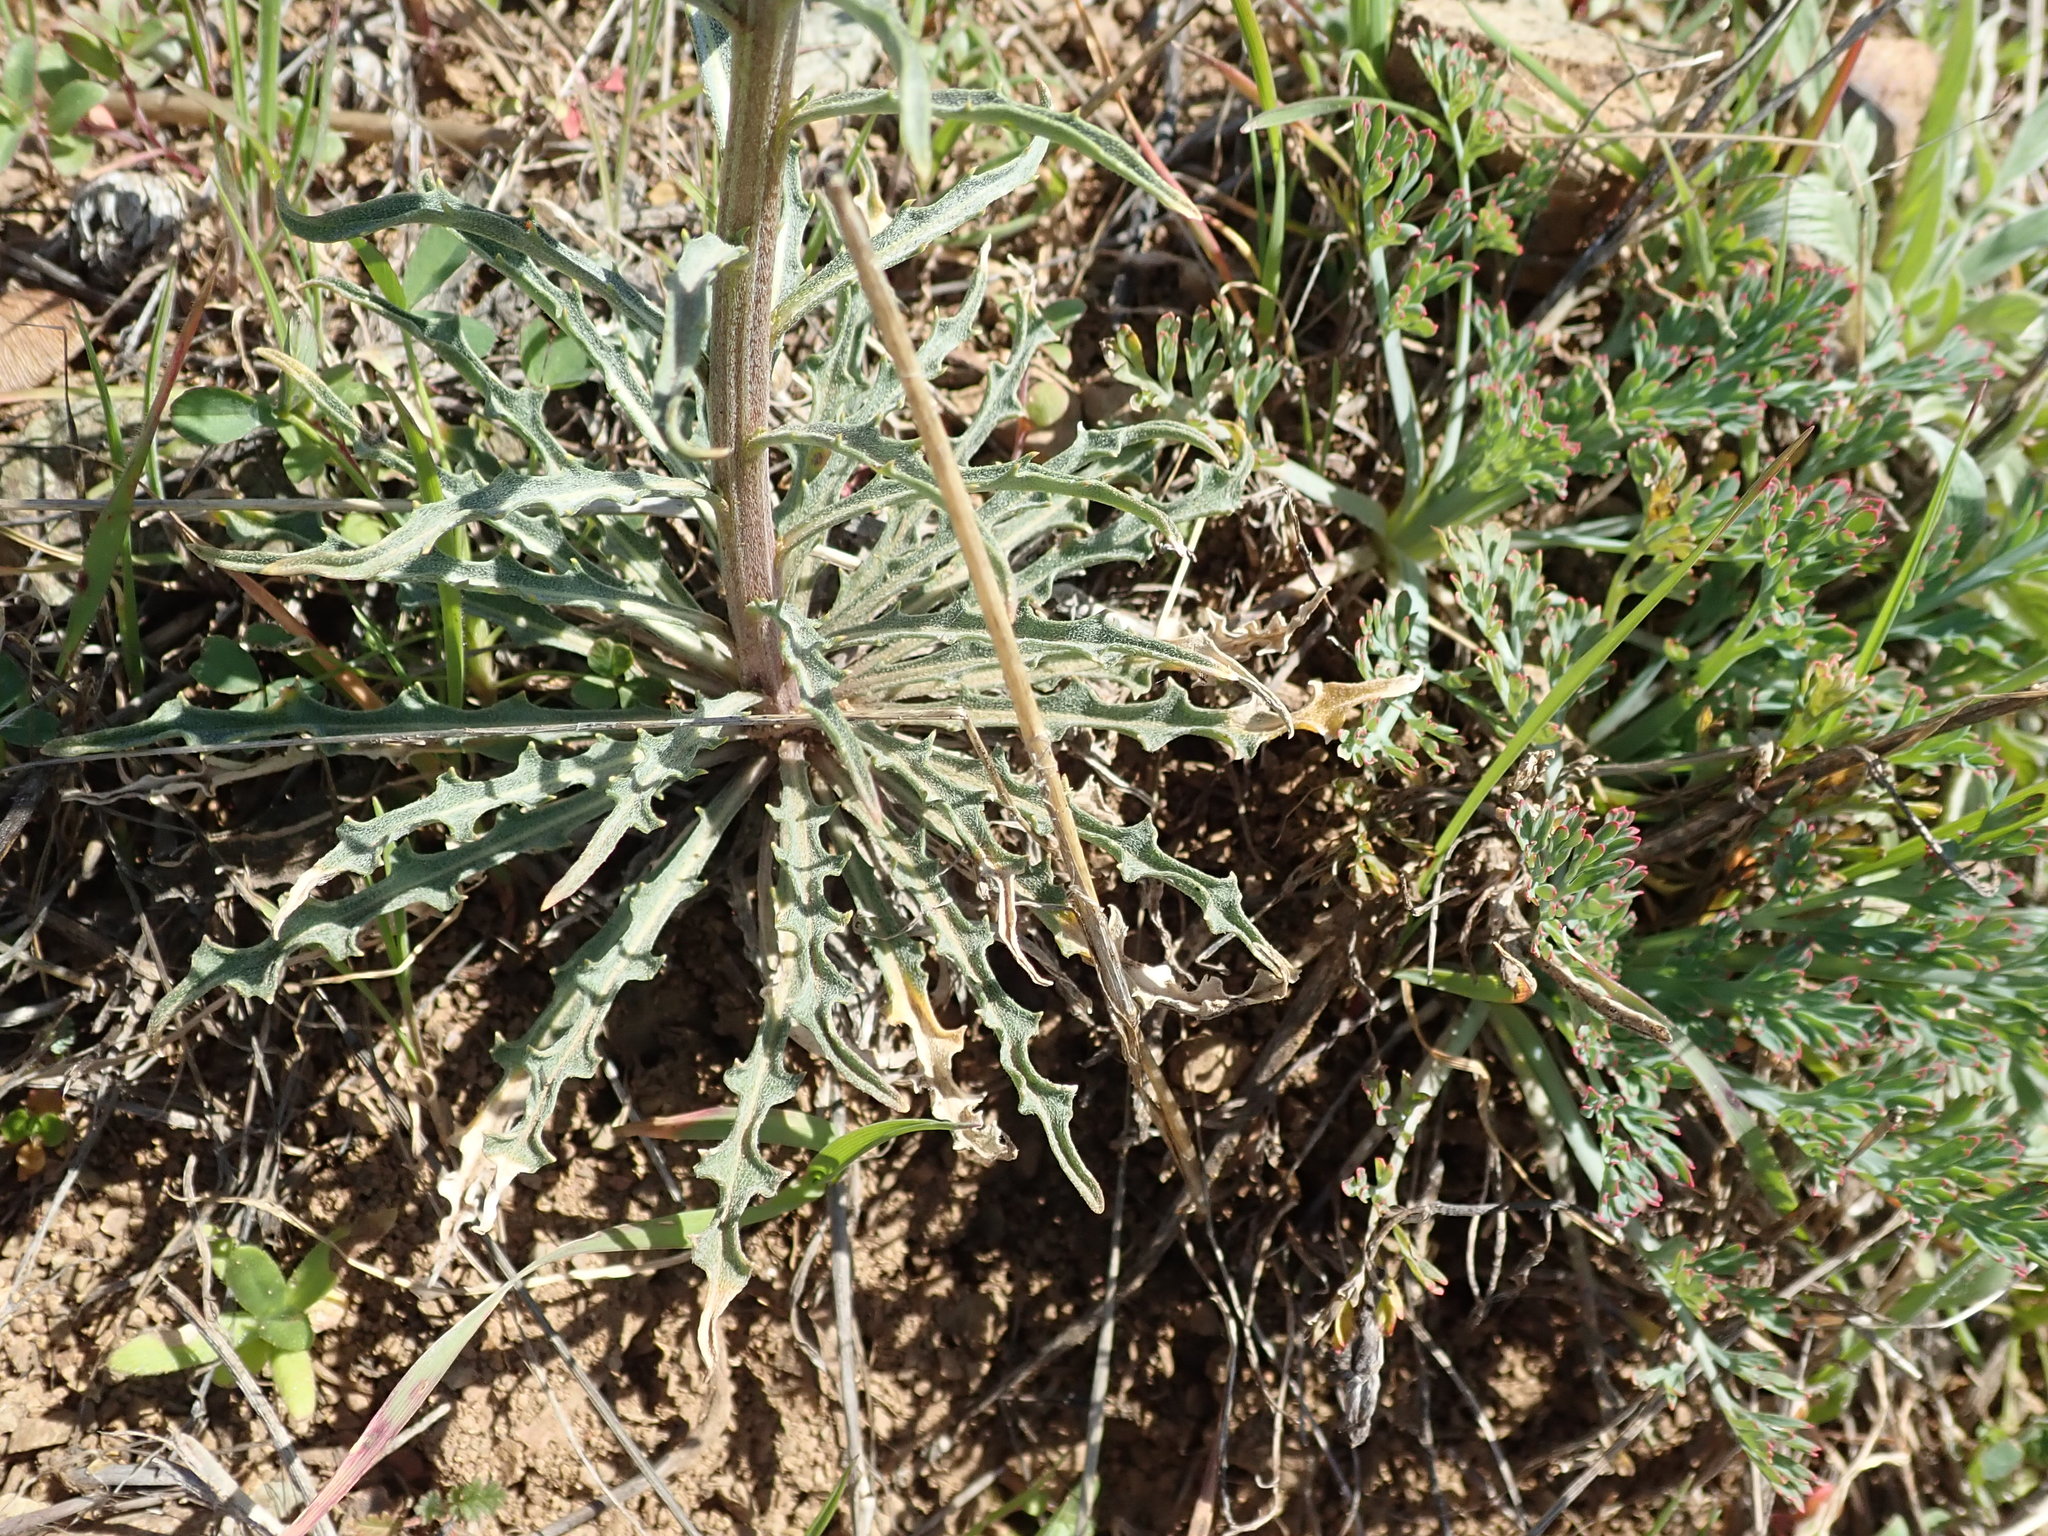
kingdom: Plantae
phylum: Tracheophyta
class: Magnoliopsida
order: Brassicales
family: Brassicaceae
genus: Erysimum
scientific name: Erysimum capitatum
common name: Western wallflower
